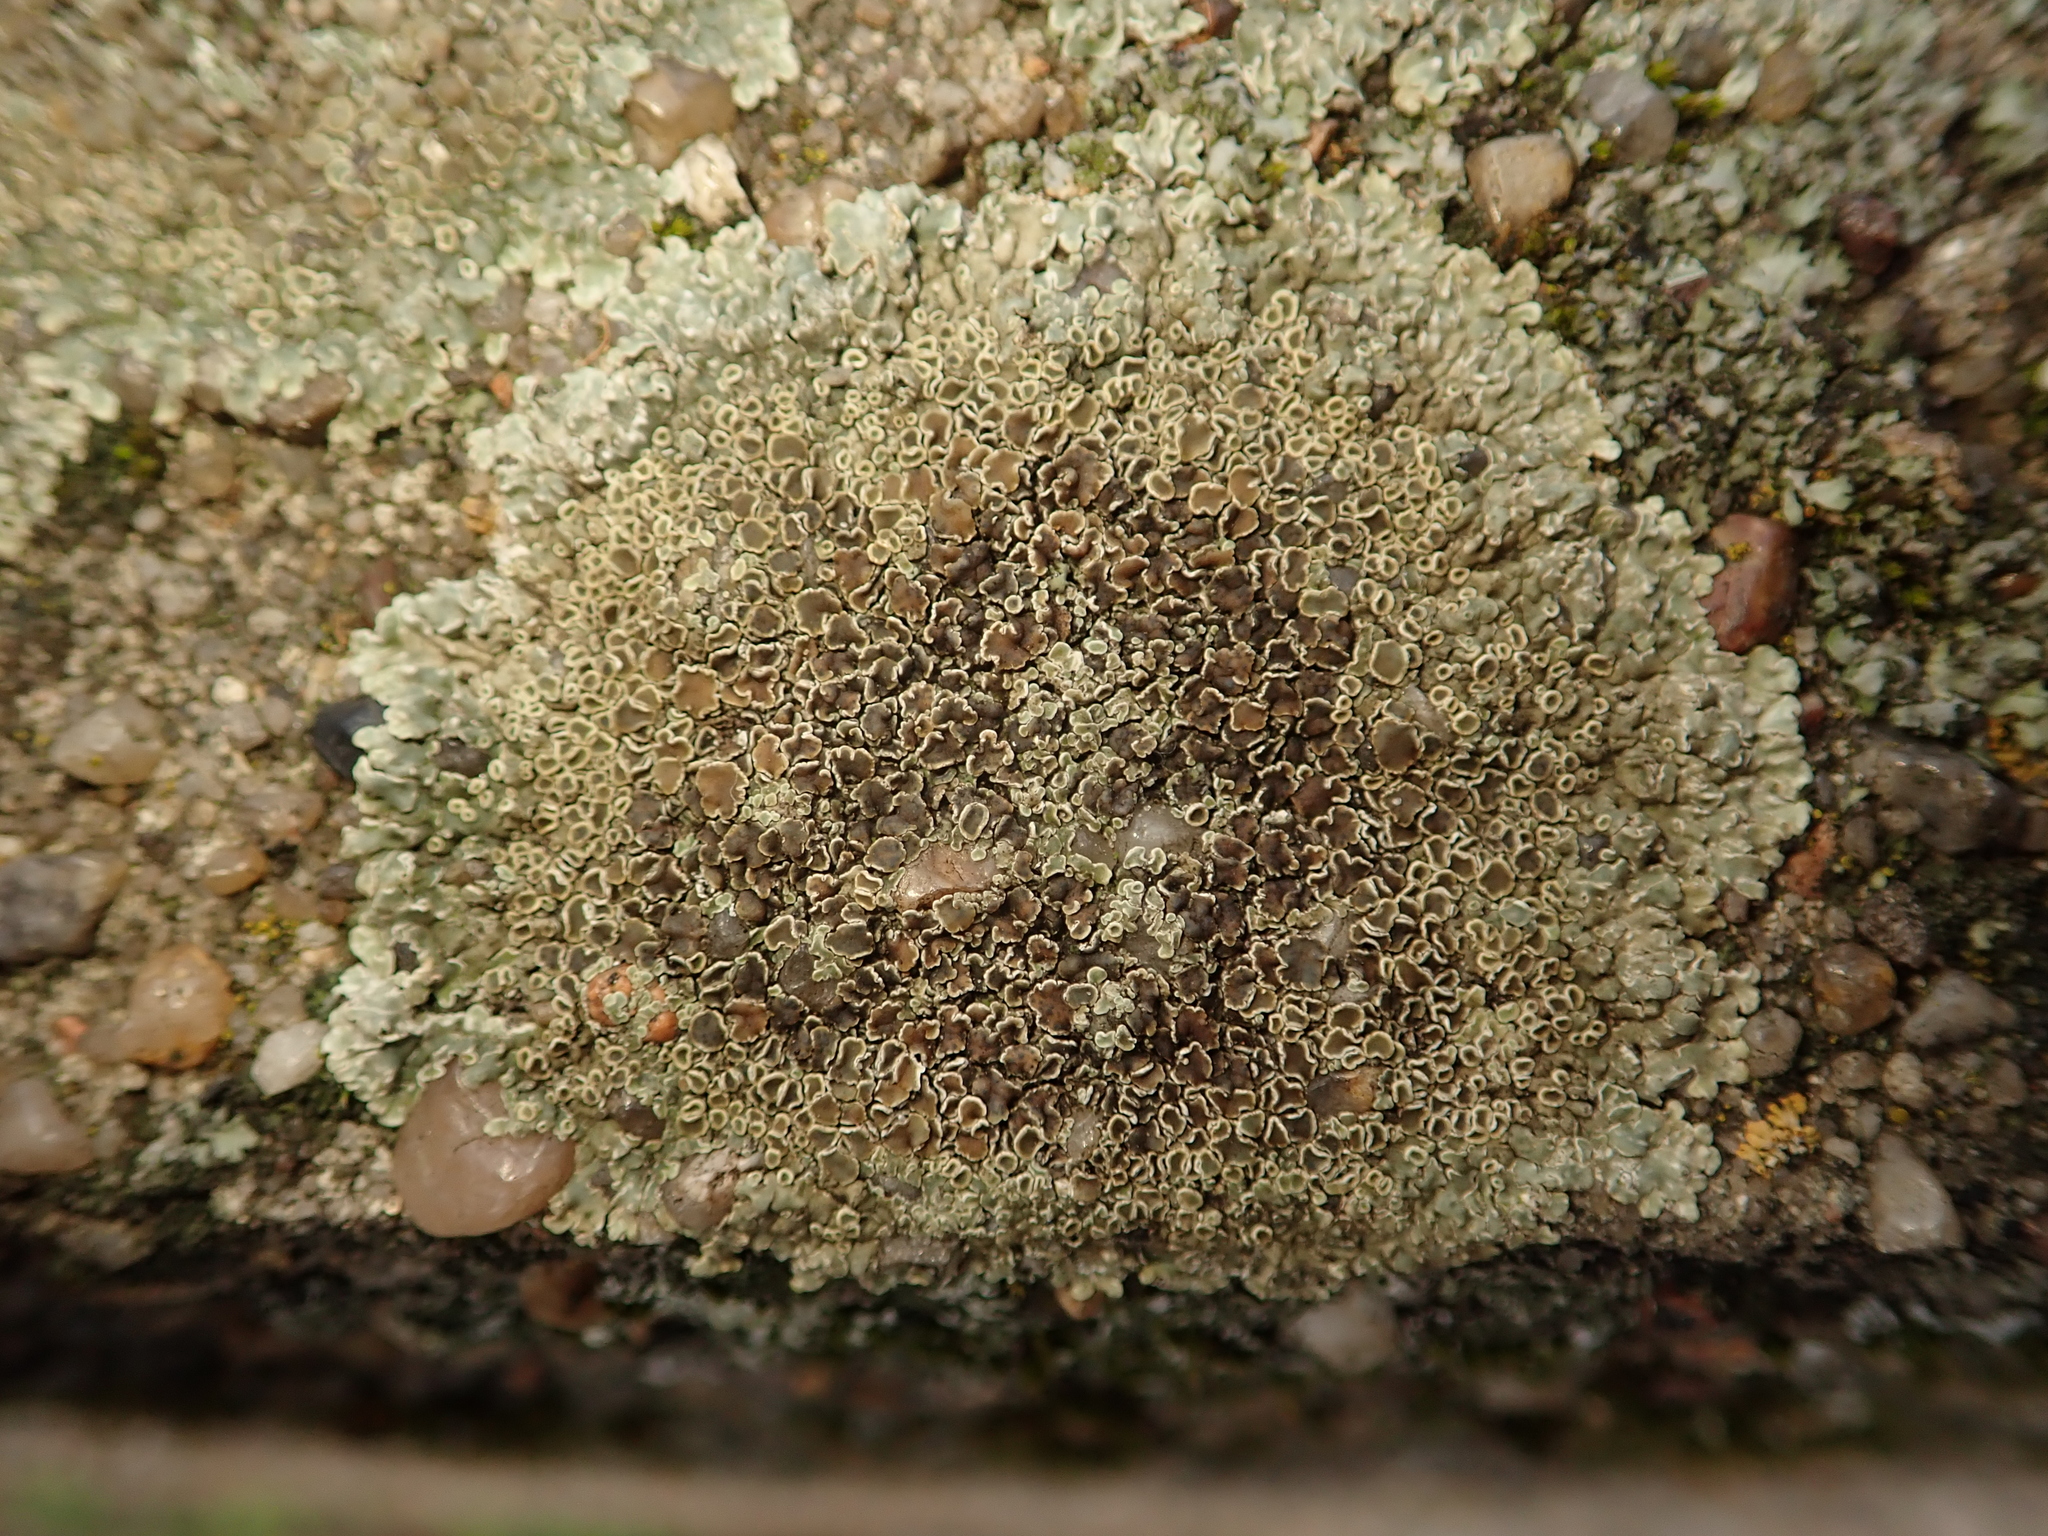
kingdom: Fungi
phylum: Ascomycota
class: Lecanoromycetes
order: Lecanorales
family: Lecanoraceae
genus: Protoparmeliopsis
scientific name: Protoparmeliopsis muralis
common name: Stonewall rim lichen
